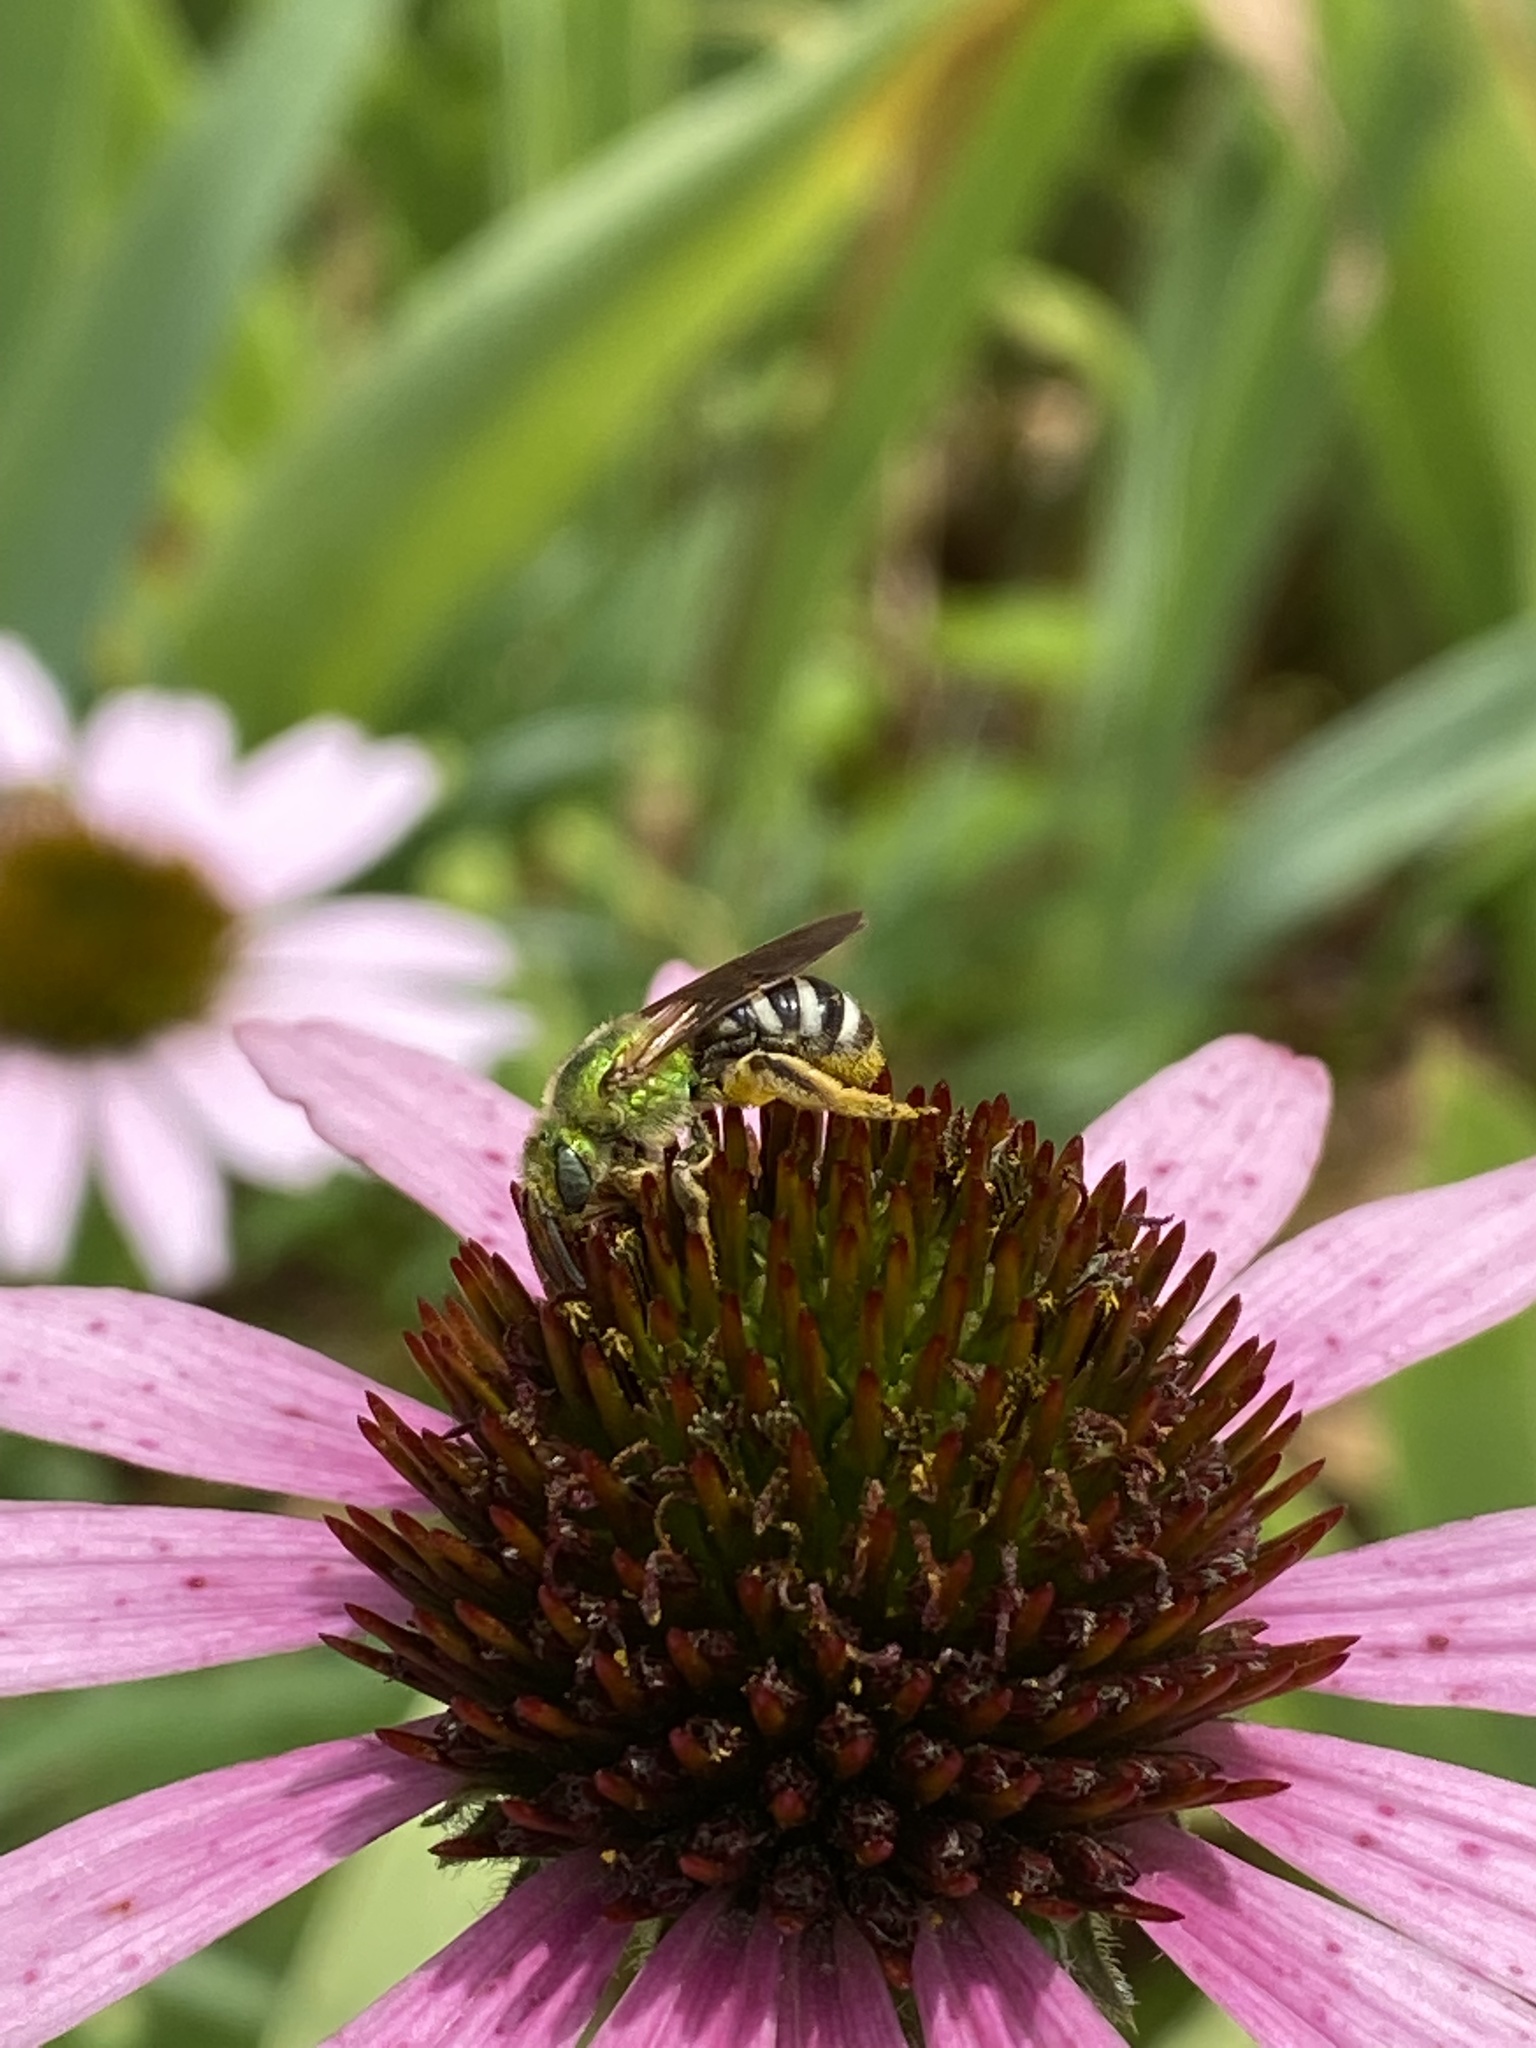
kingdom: Animalia
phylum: Arthropoda
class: Insecta
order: Hymenoptera
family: Halictidae
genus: Agapostemon
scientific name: Agapostemon virescens
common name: Bicolored striped sweat bee
